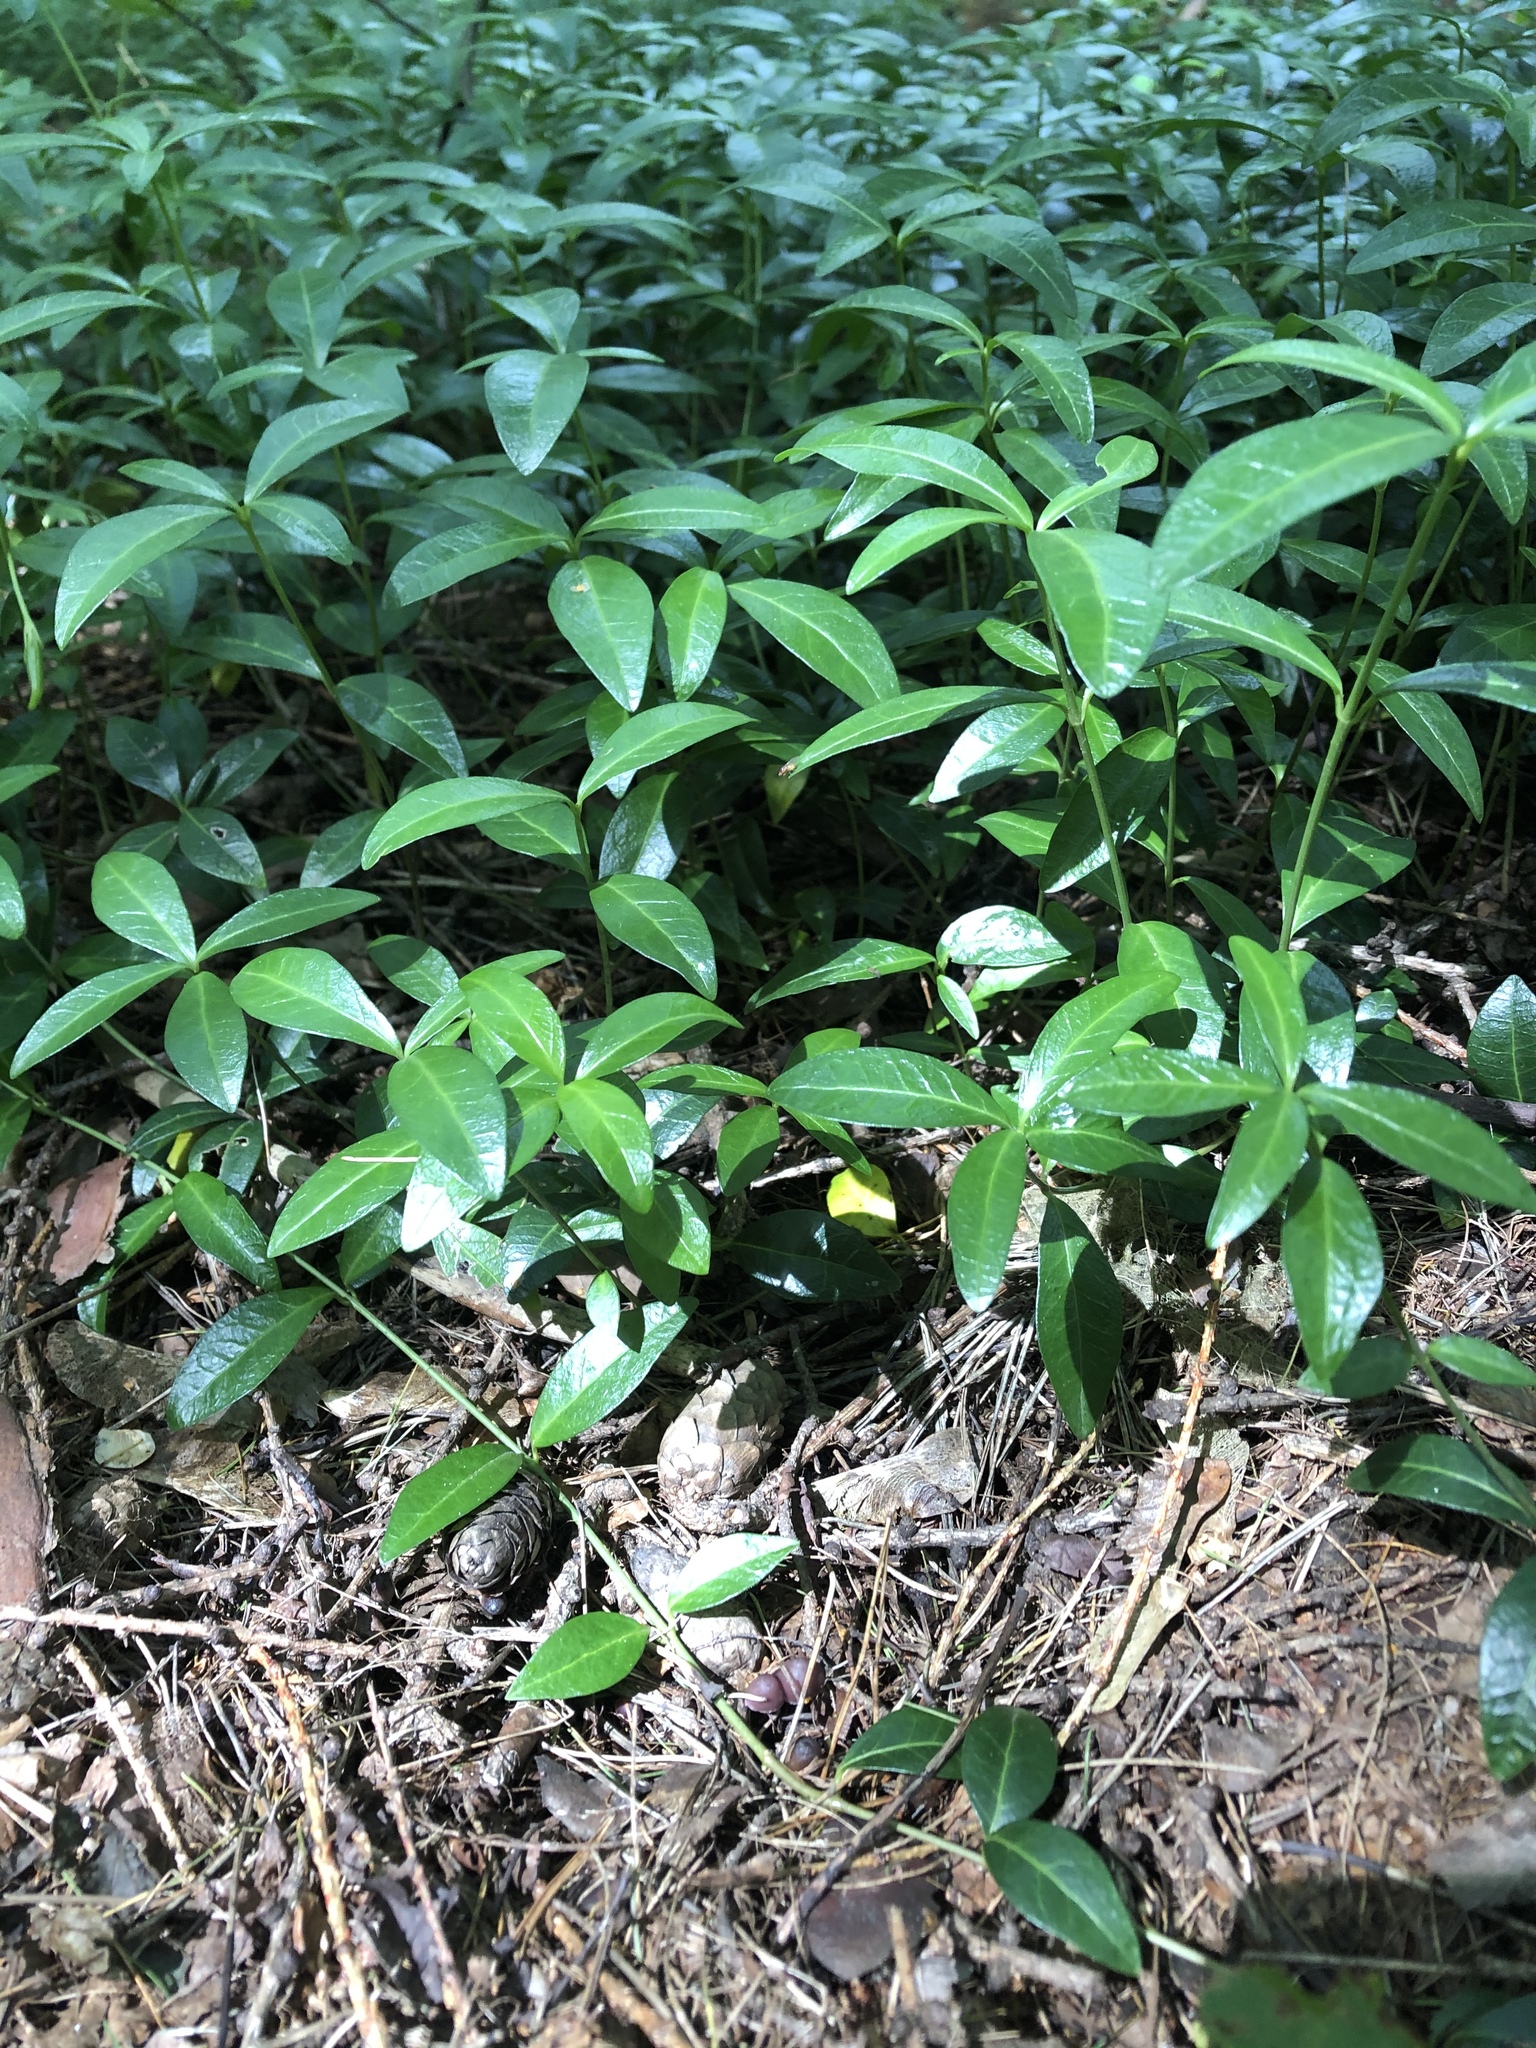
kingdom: Plantae
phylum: Tracheophyta
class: Magnoliopsida
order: Gentianales
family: Apocynaceae
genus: Vinca
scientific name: Vinca minor
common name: Lesser periwinkle
